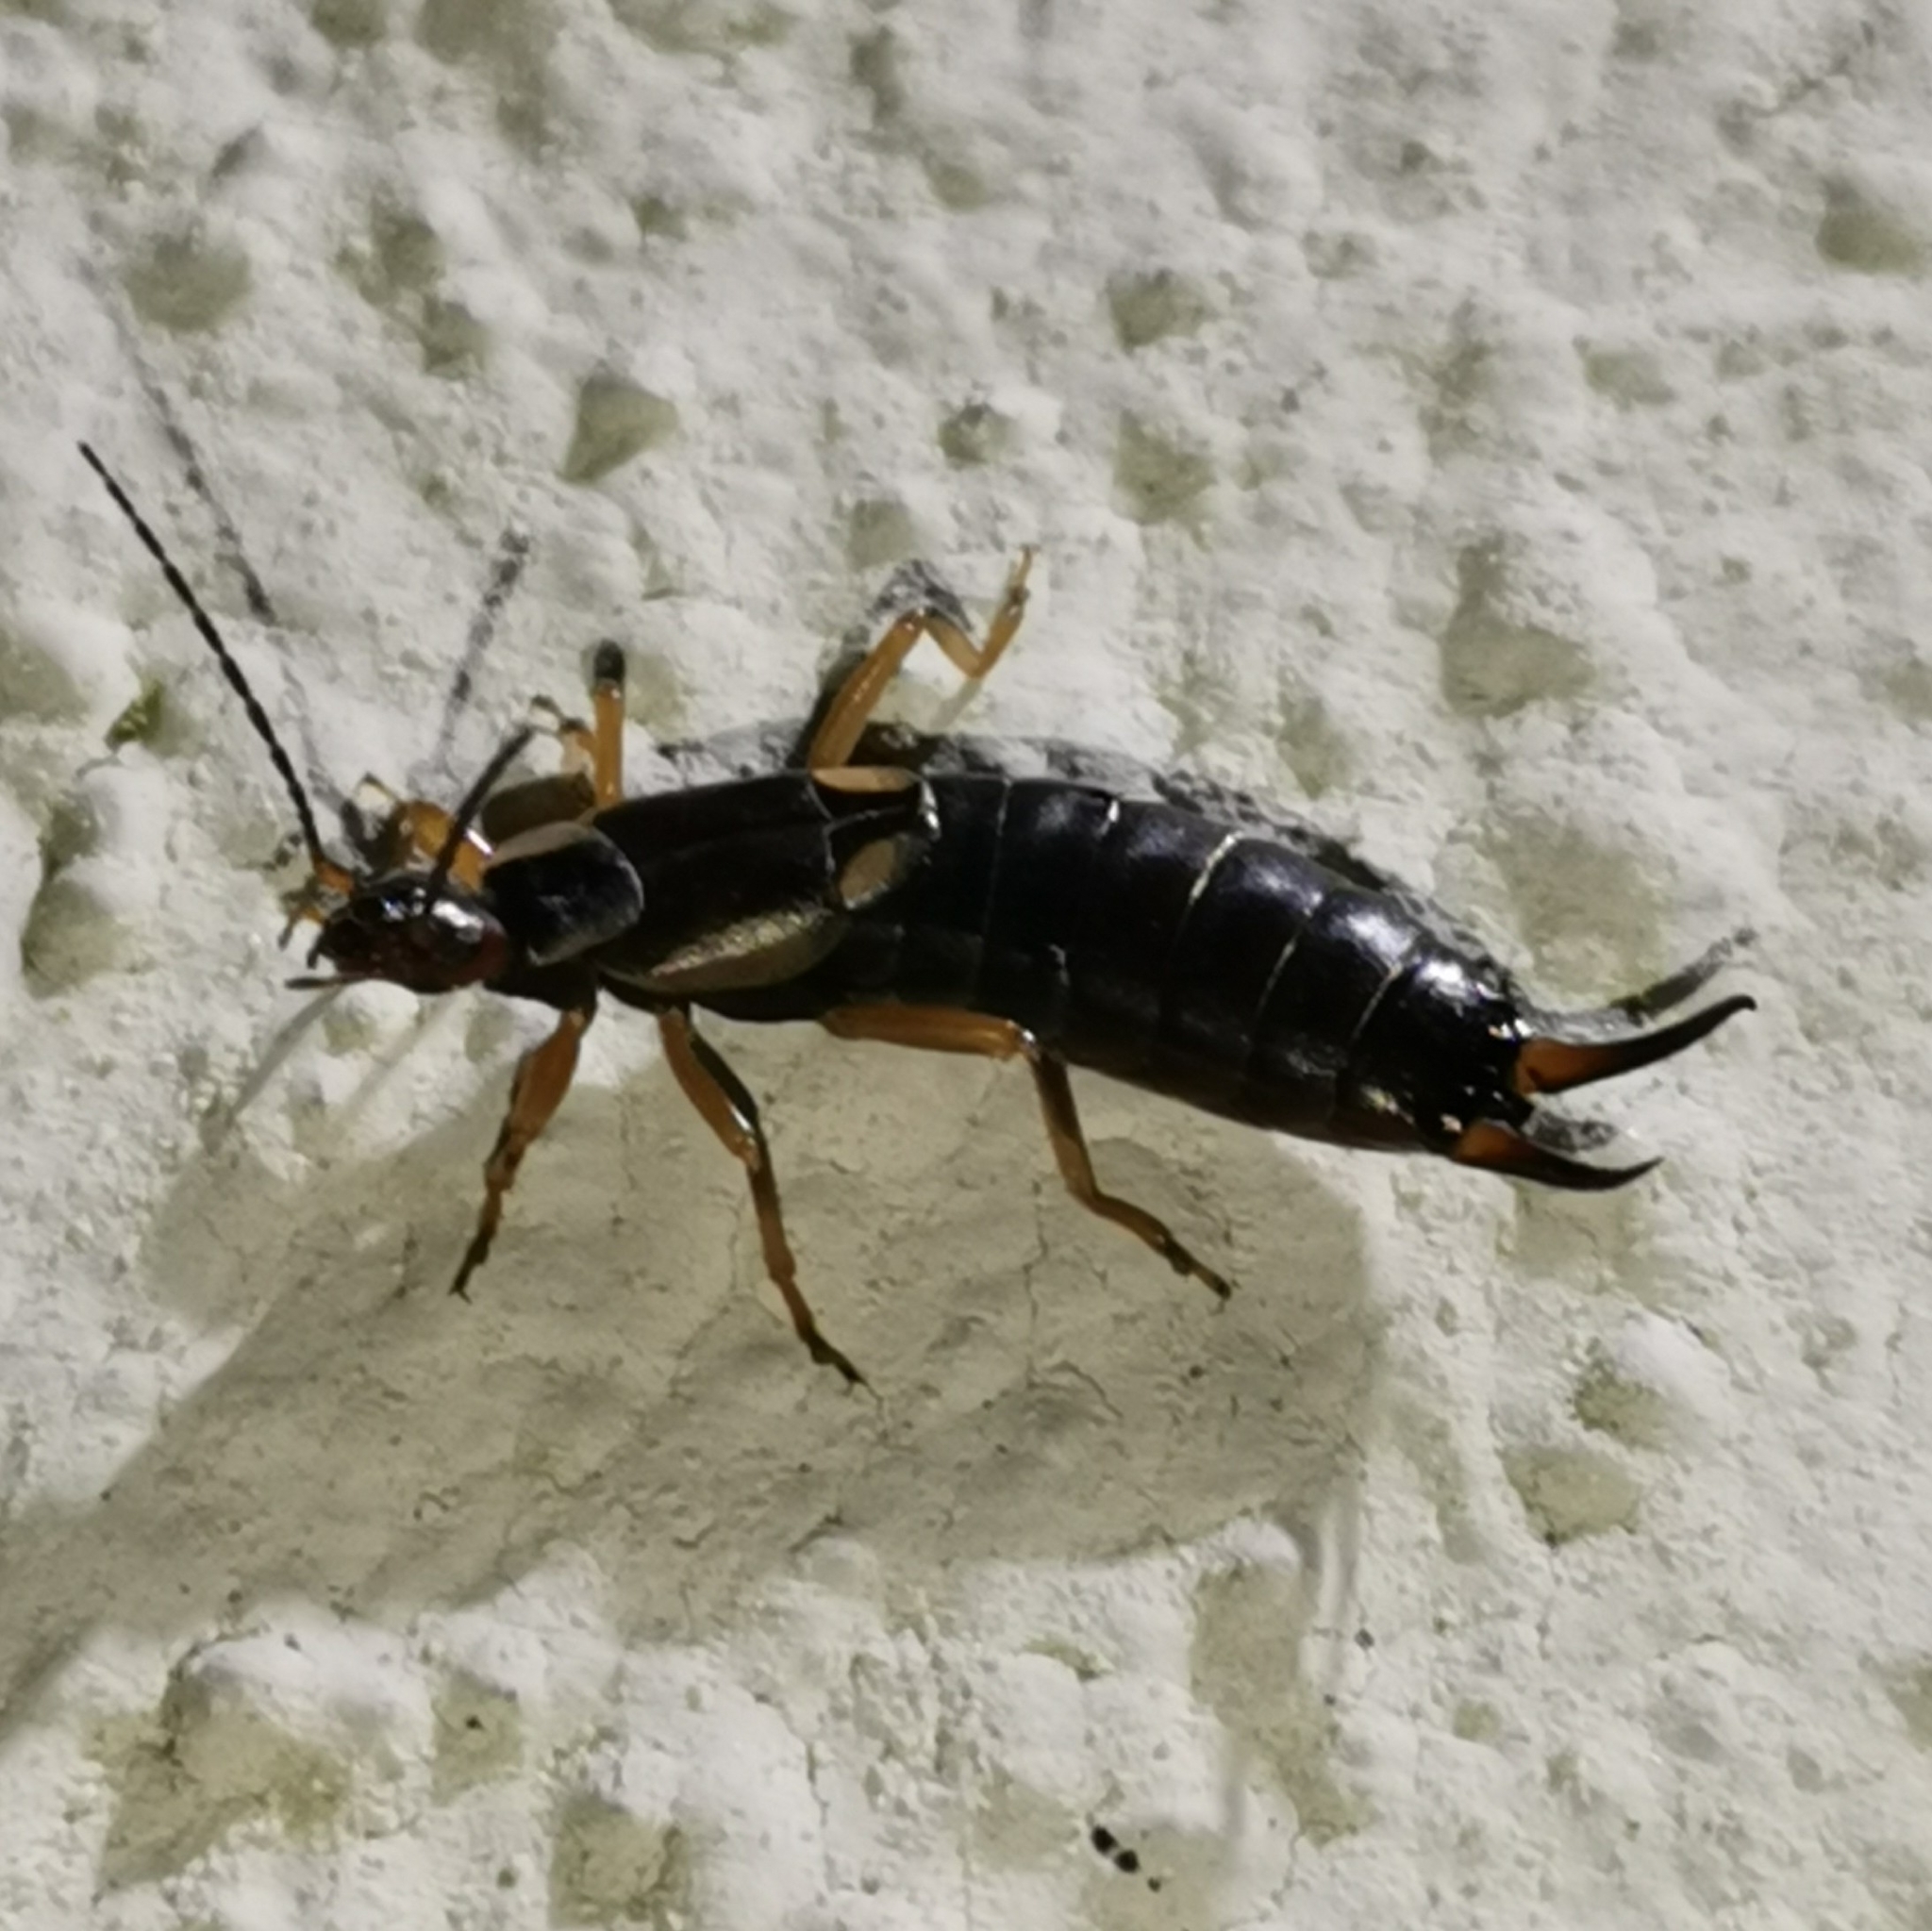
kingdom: Animalia
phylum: Arthropoda
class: Insecta
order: Dermaptera
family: Forficulidae
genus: Forficula
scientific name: Forficula
